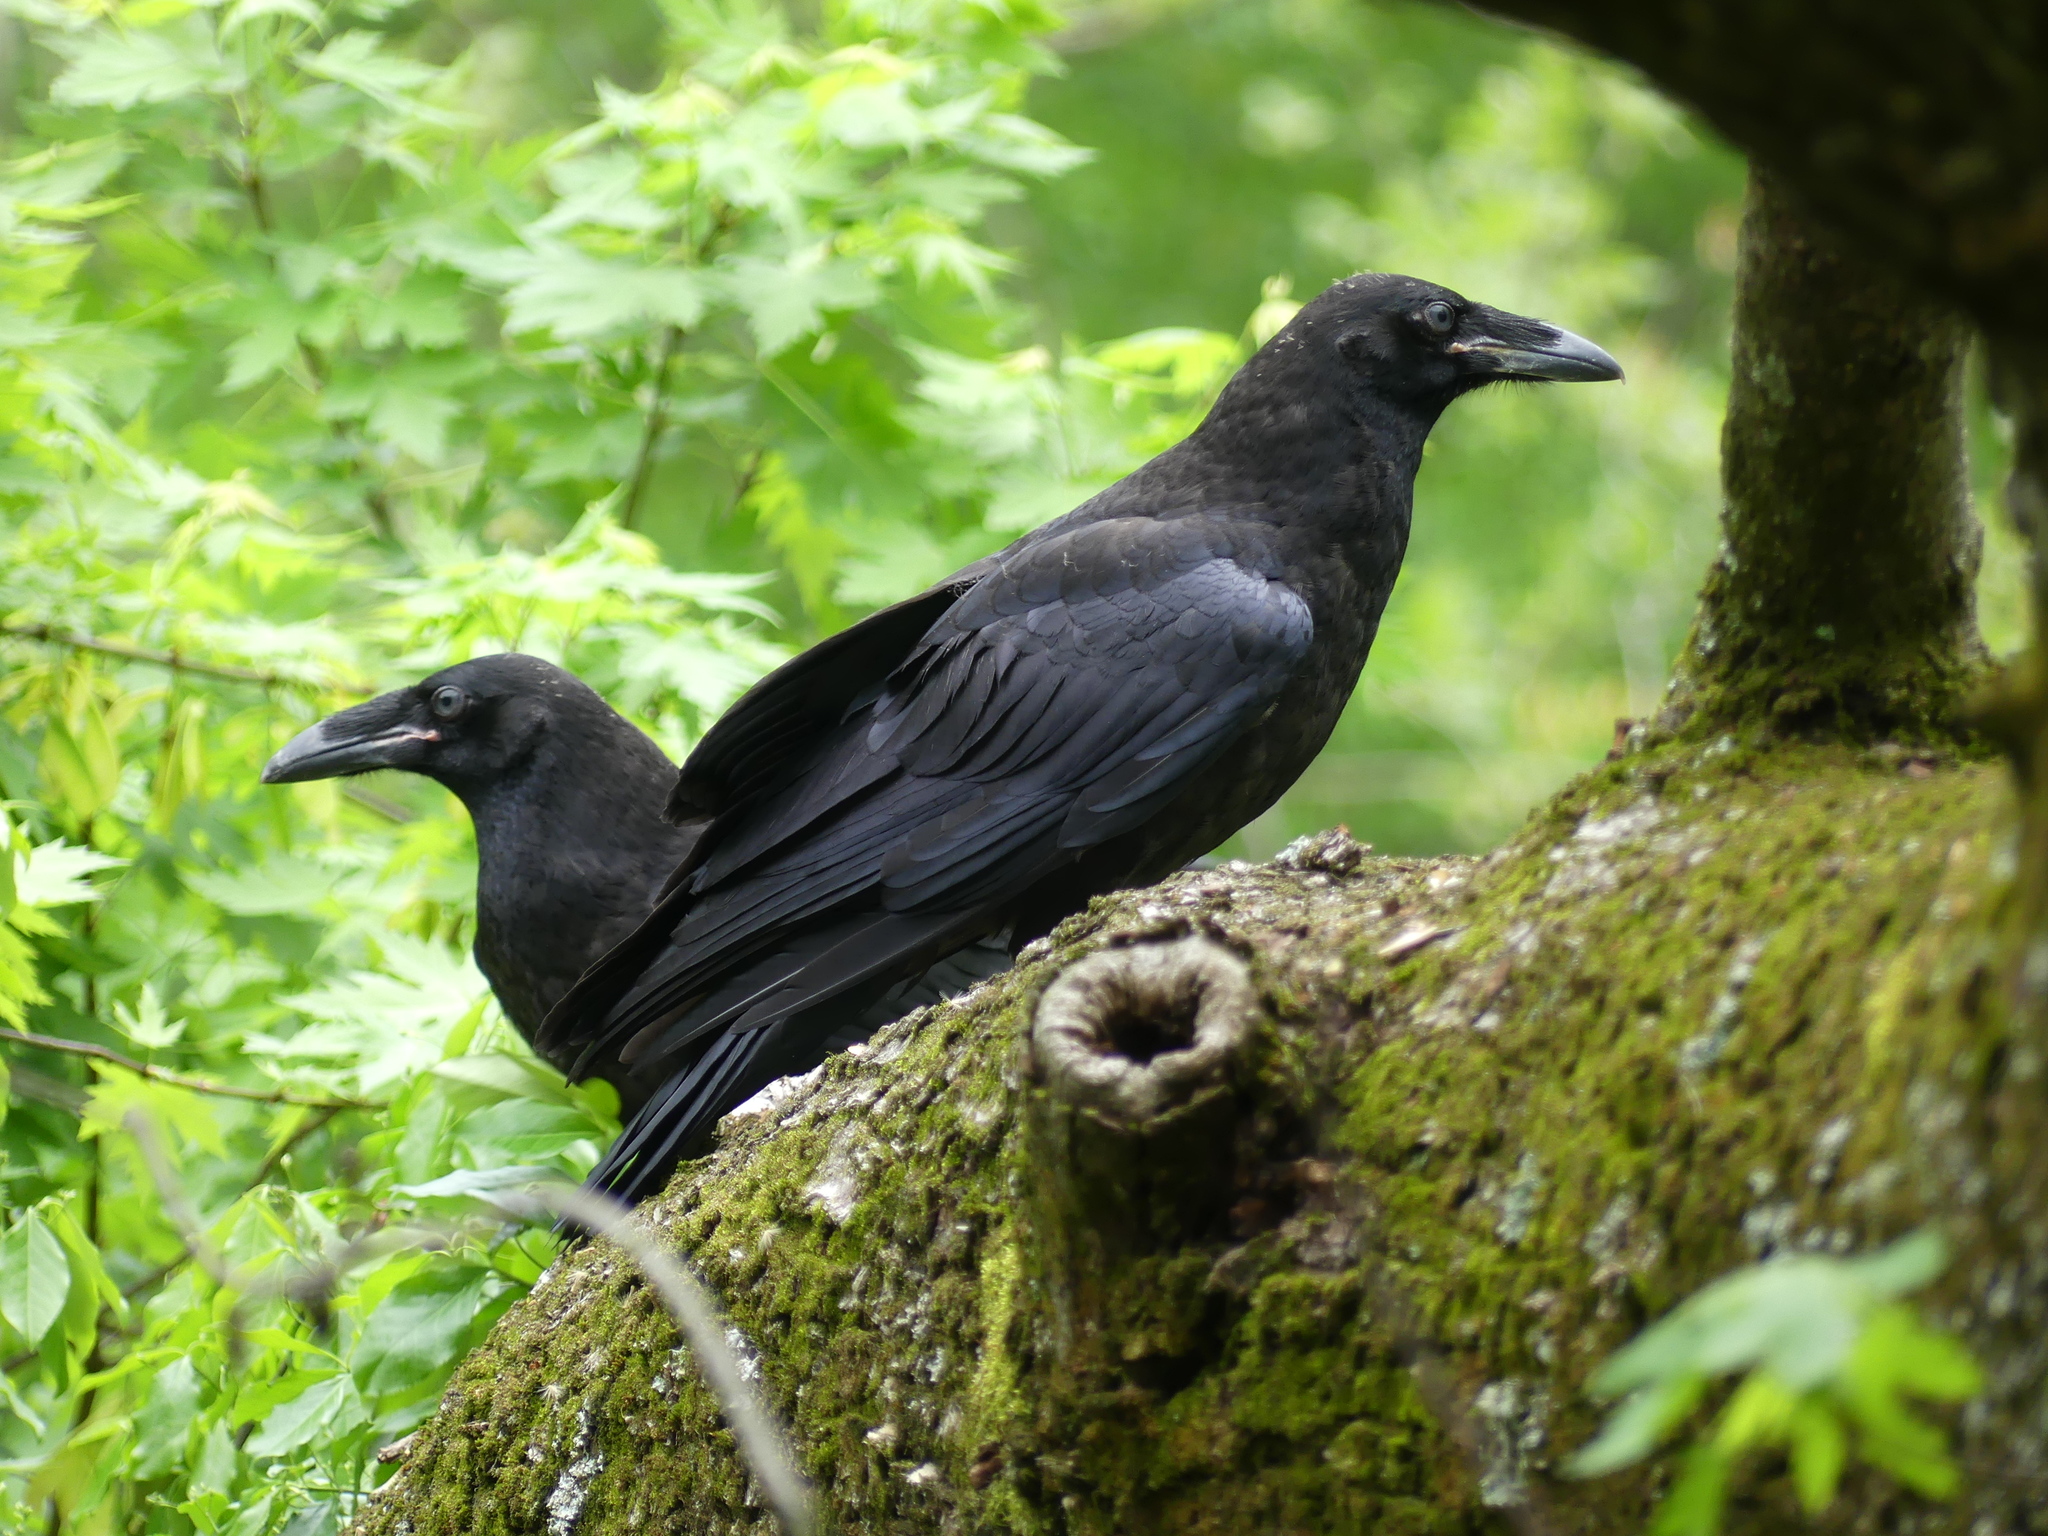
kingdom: Animalia
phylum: Chordata
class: Aves
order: Passeriformes
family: Corvidae
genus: Corvus
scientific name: Corvus corax
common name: Common raven
